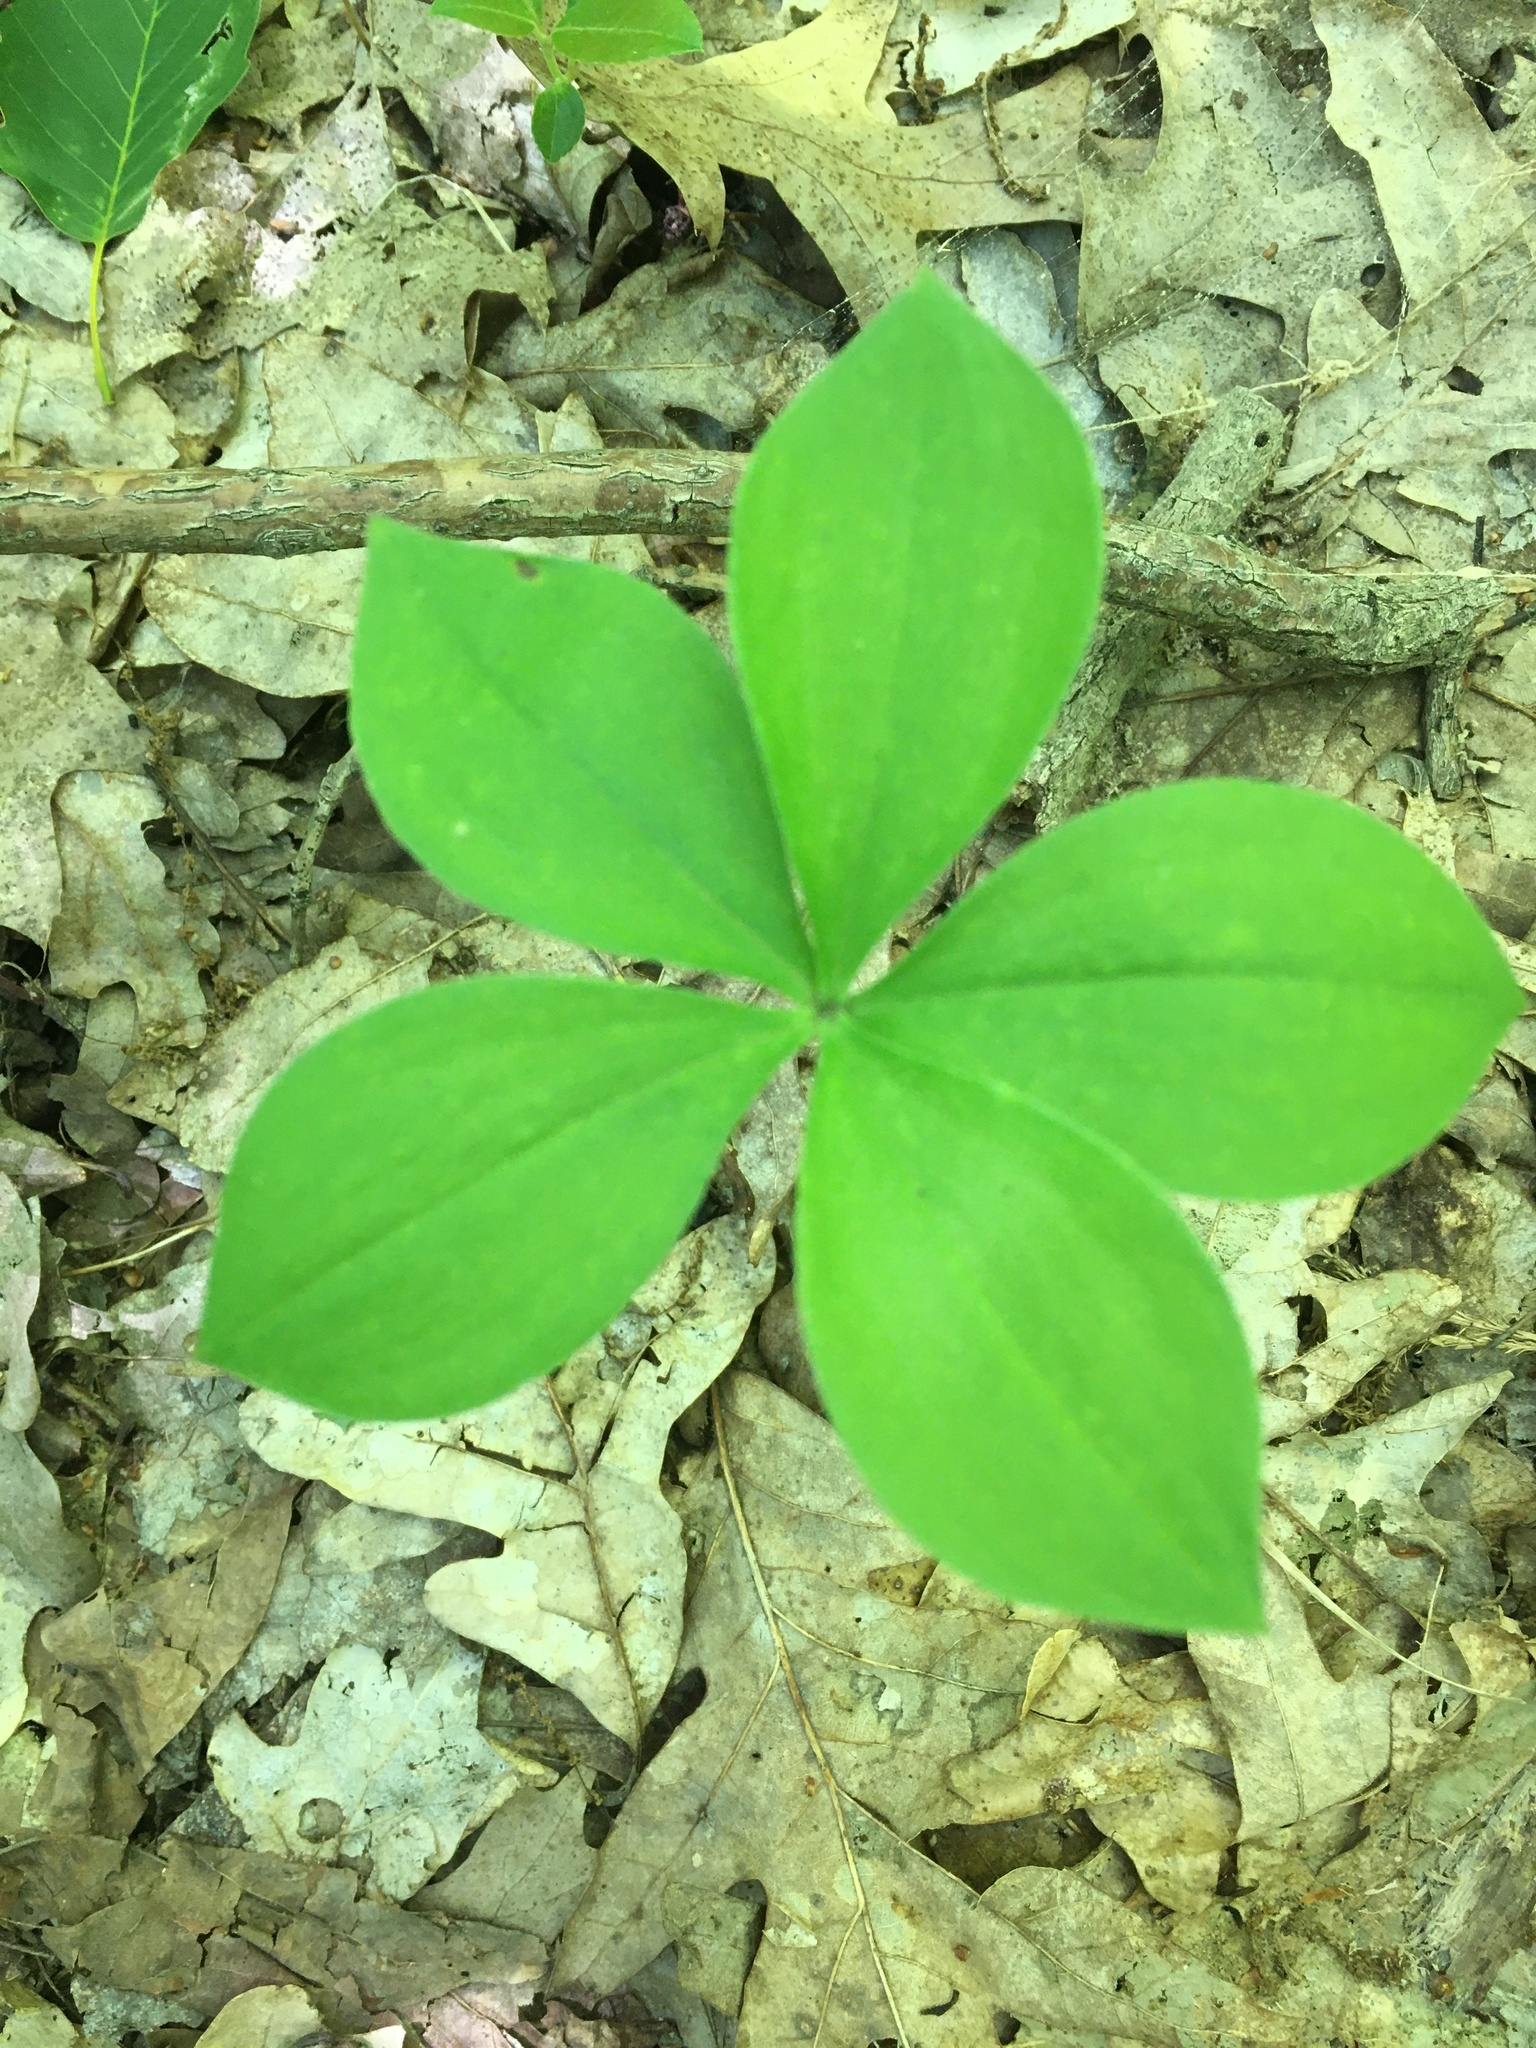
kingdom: Plantae
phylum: Tracheophyta
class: Liliopsida
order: Asparagales
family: Orchidaceae
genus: Isotria
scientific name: Isotria verticillata
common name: Large whorled pogonia
